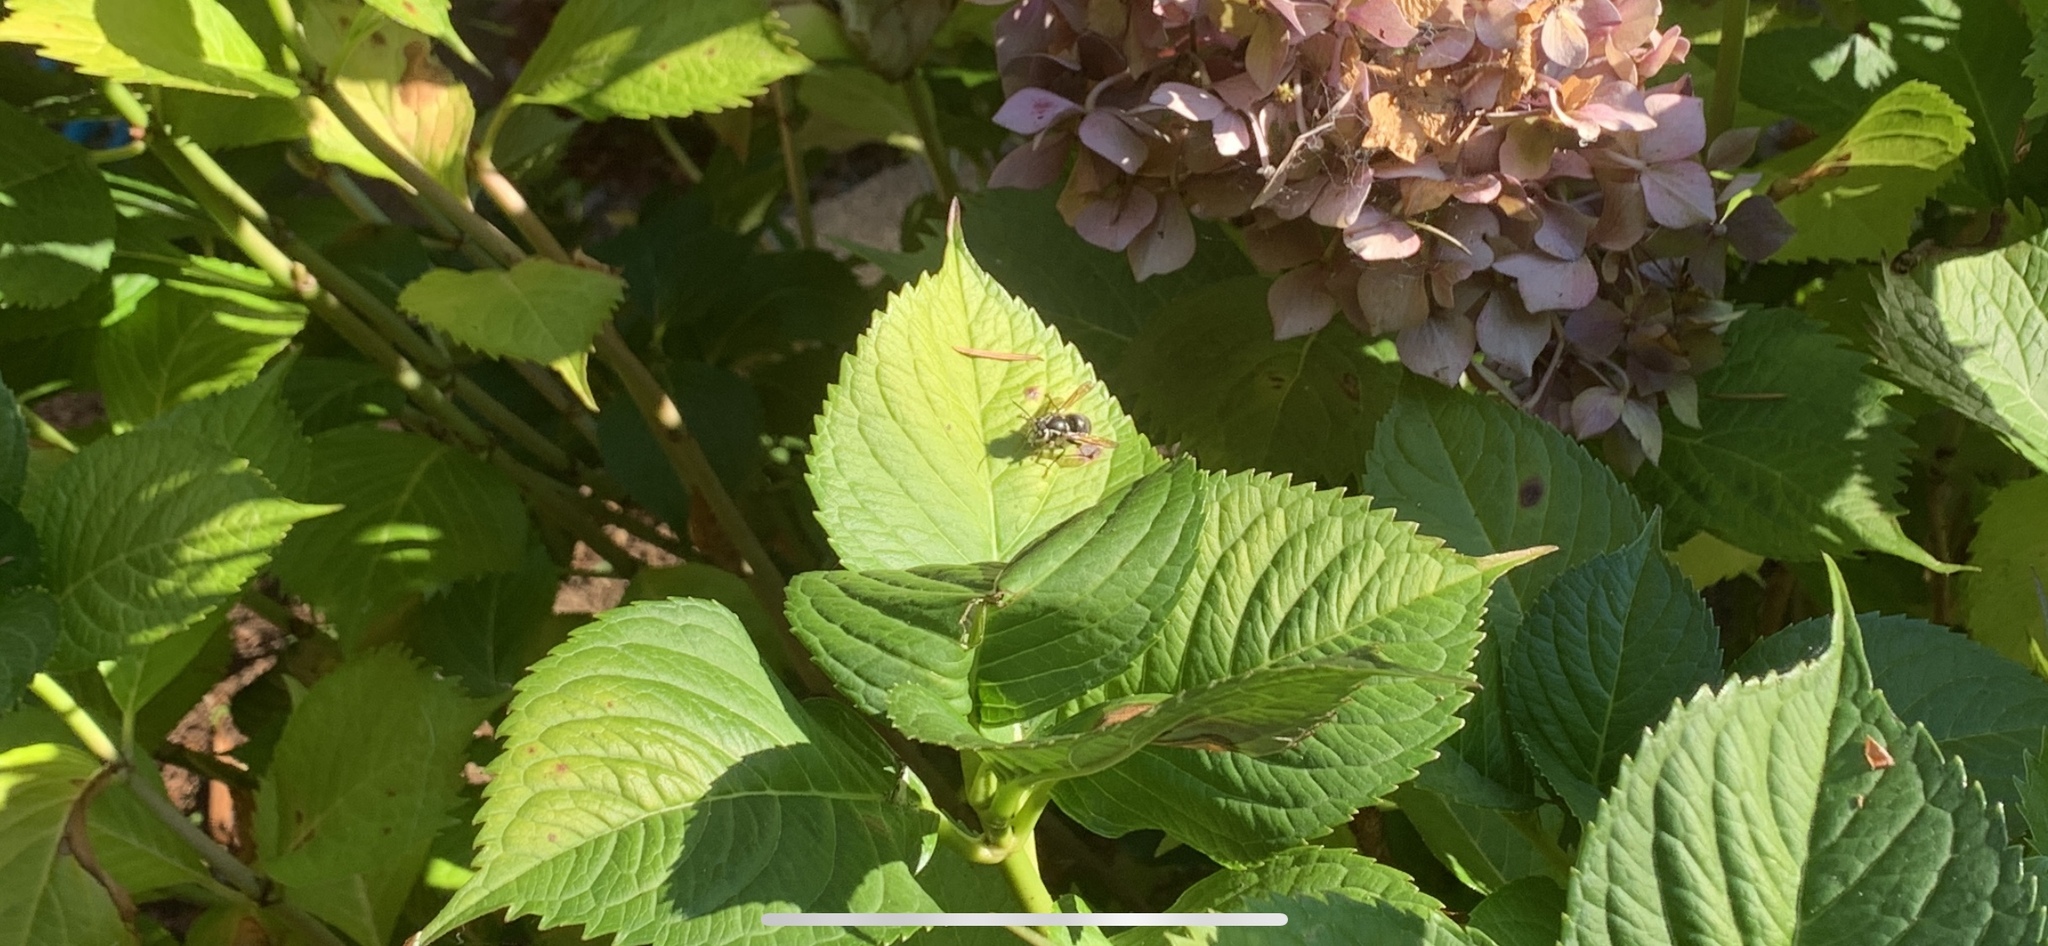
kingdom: Animalia
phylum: Arthropoda
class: Insecta
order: Hymenoptera
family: Vespidae
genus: Dolichovespula
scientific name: Dolichovespula maculata
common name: Bald-faced hornet
